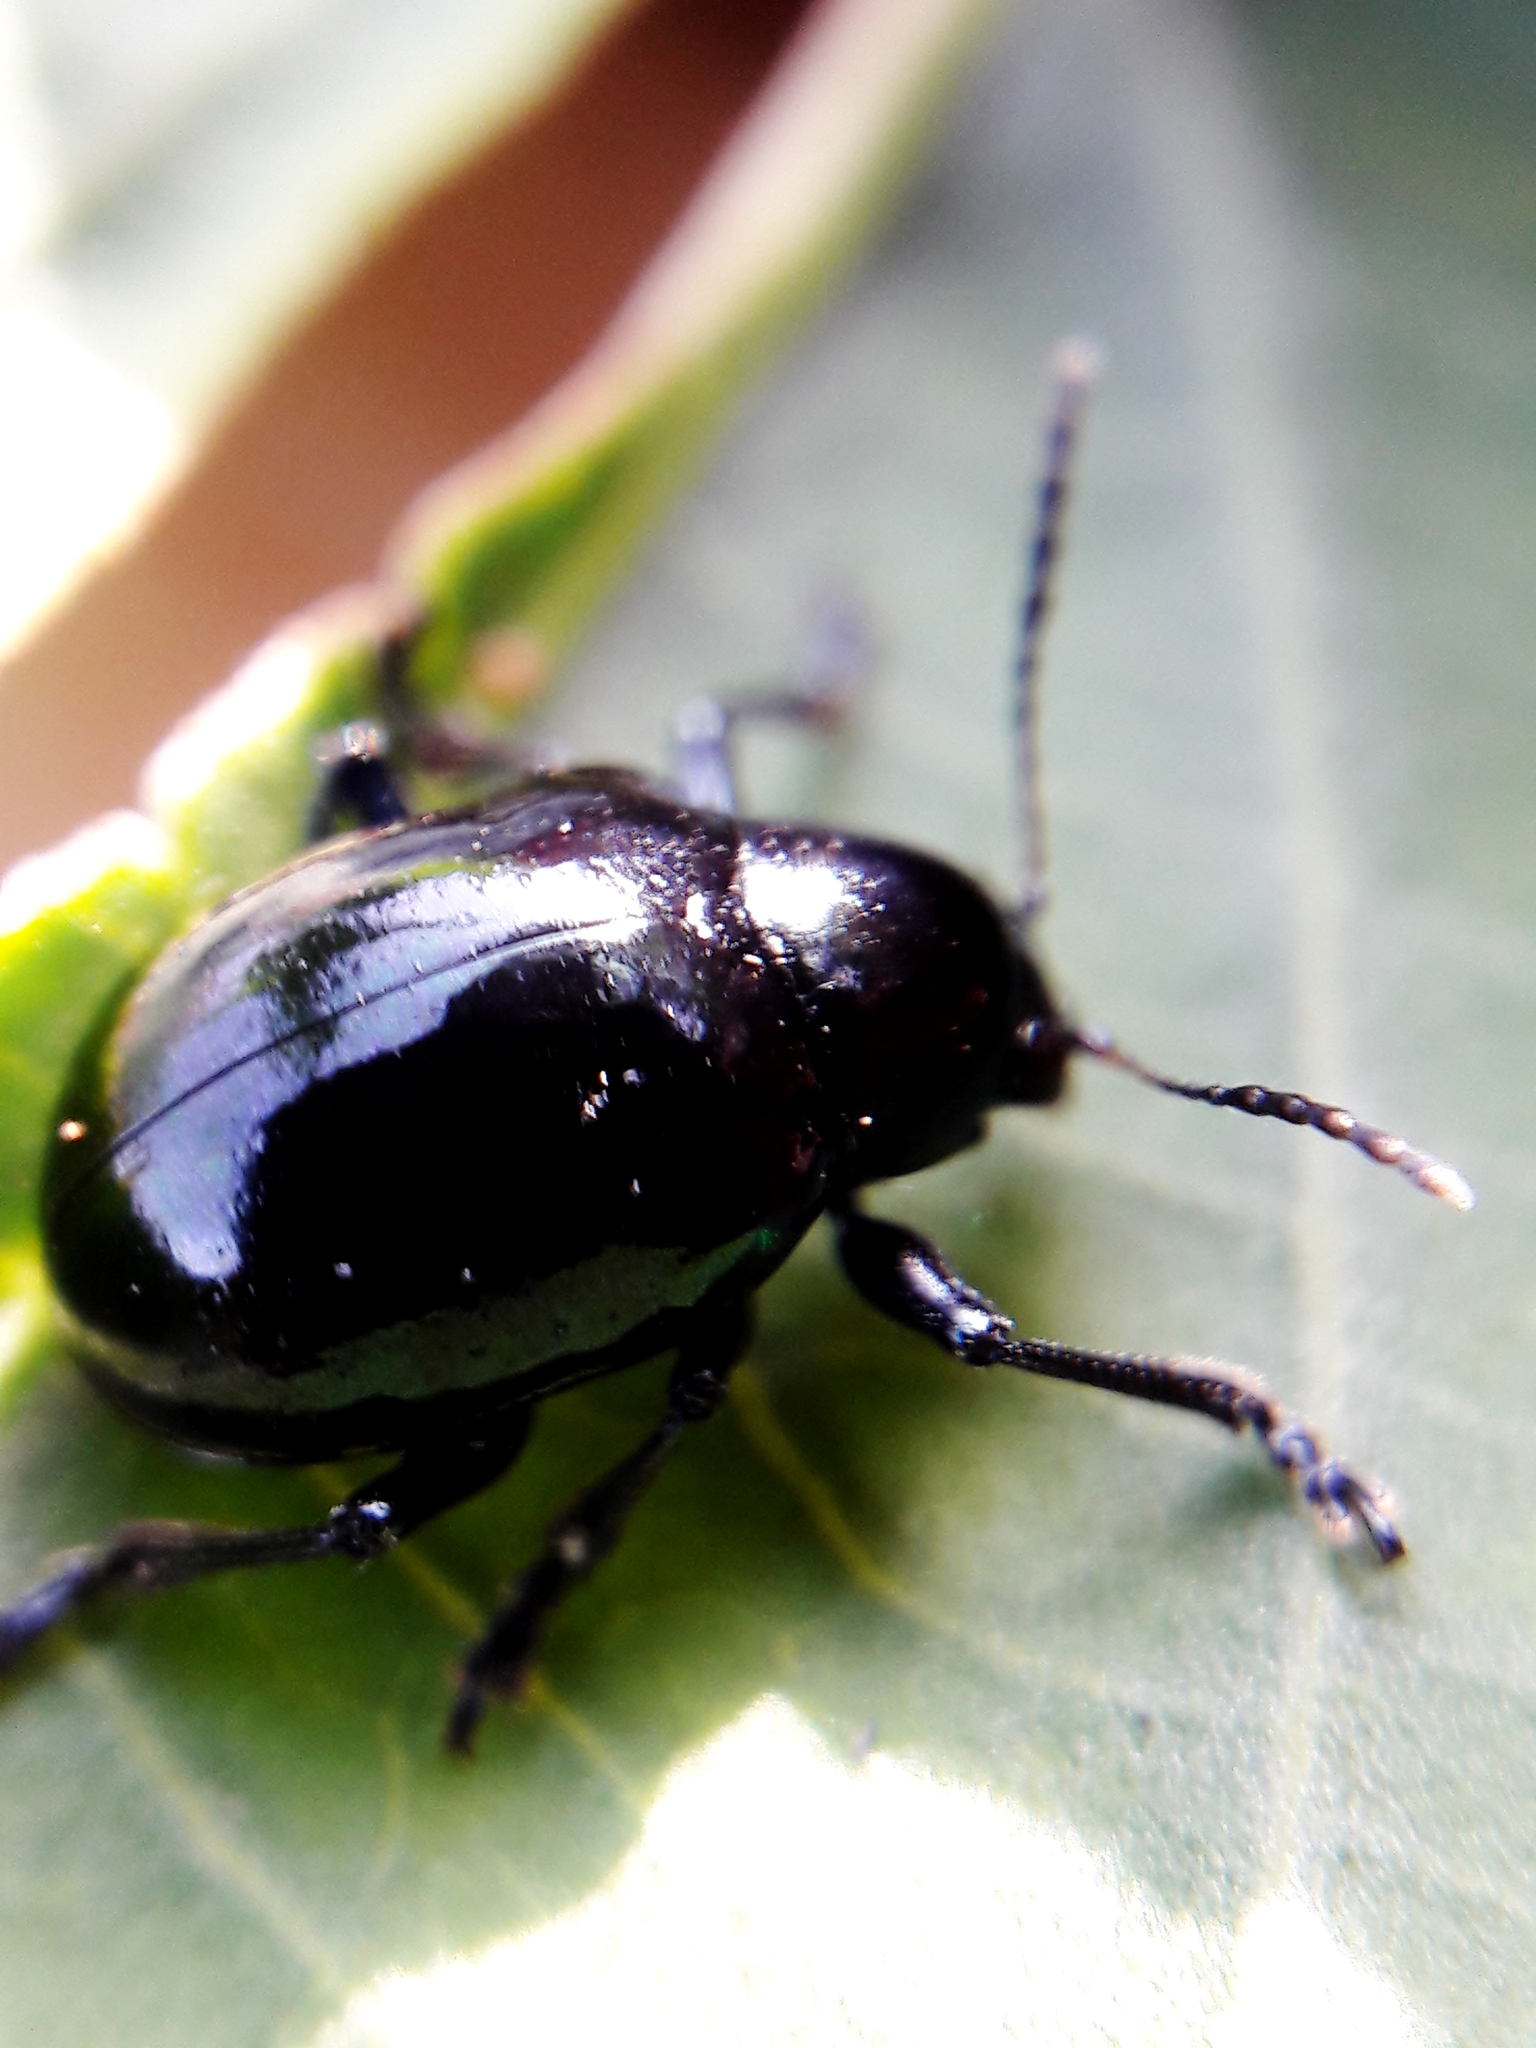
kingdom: Animalia
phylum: Arthropoda
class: Insecta
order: Coleoptera
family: Chrysomelidae
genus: Typophorus
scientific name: Typophorus nigritus
